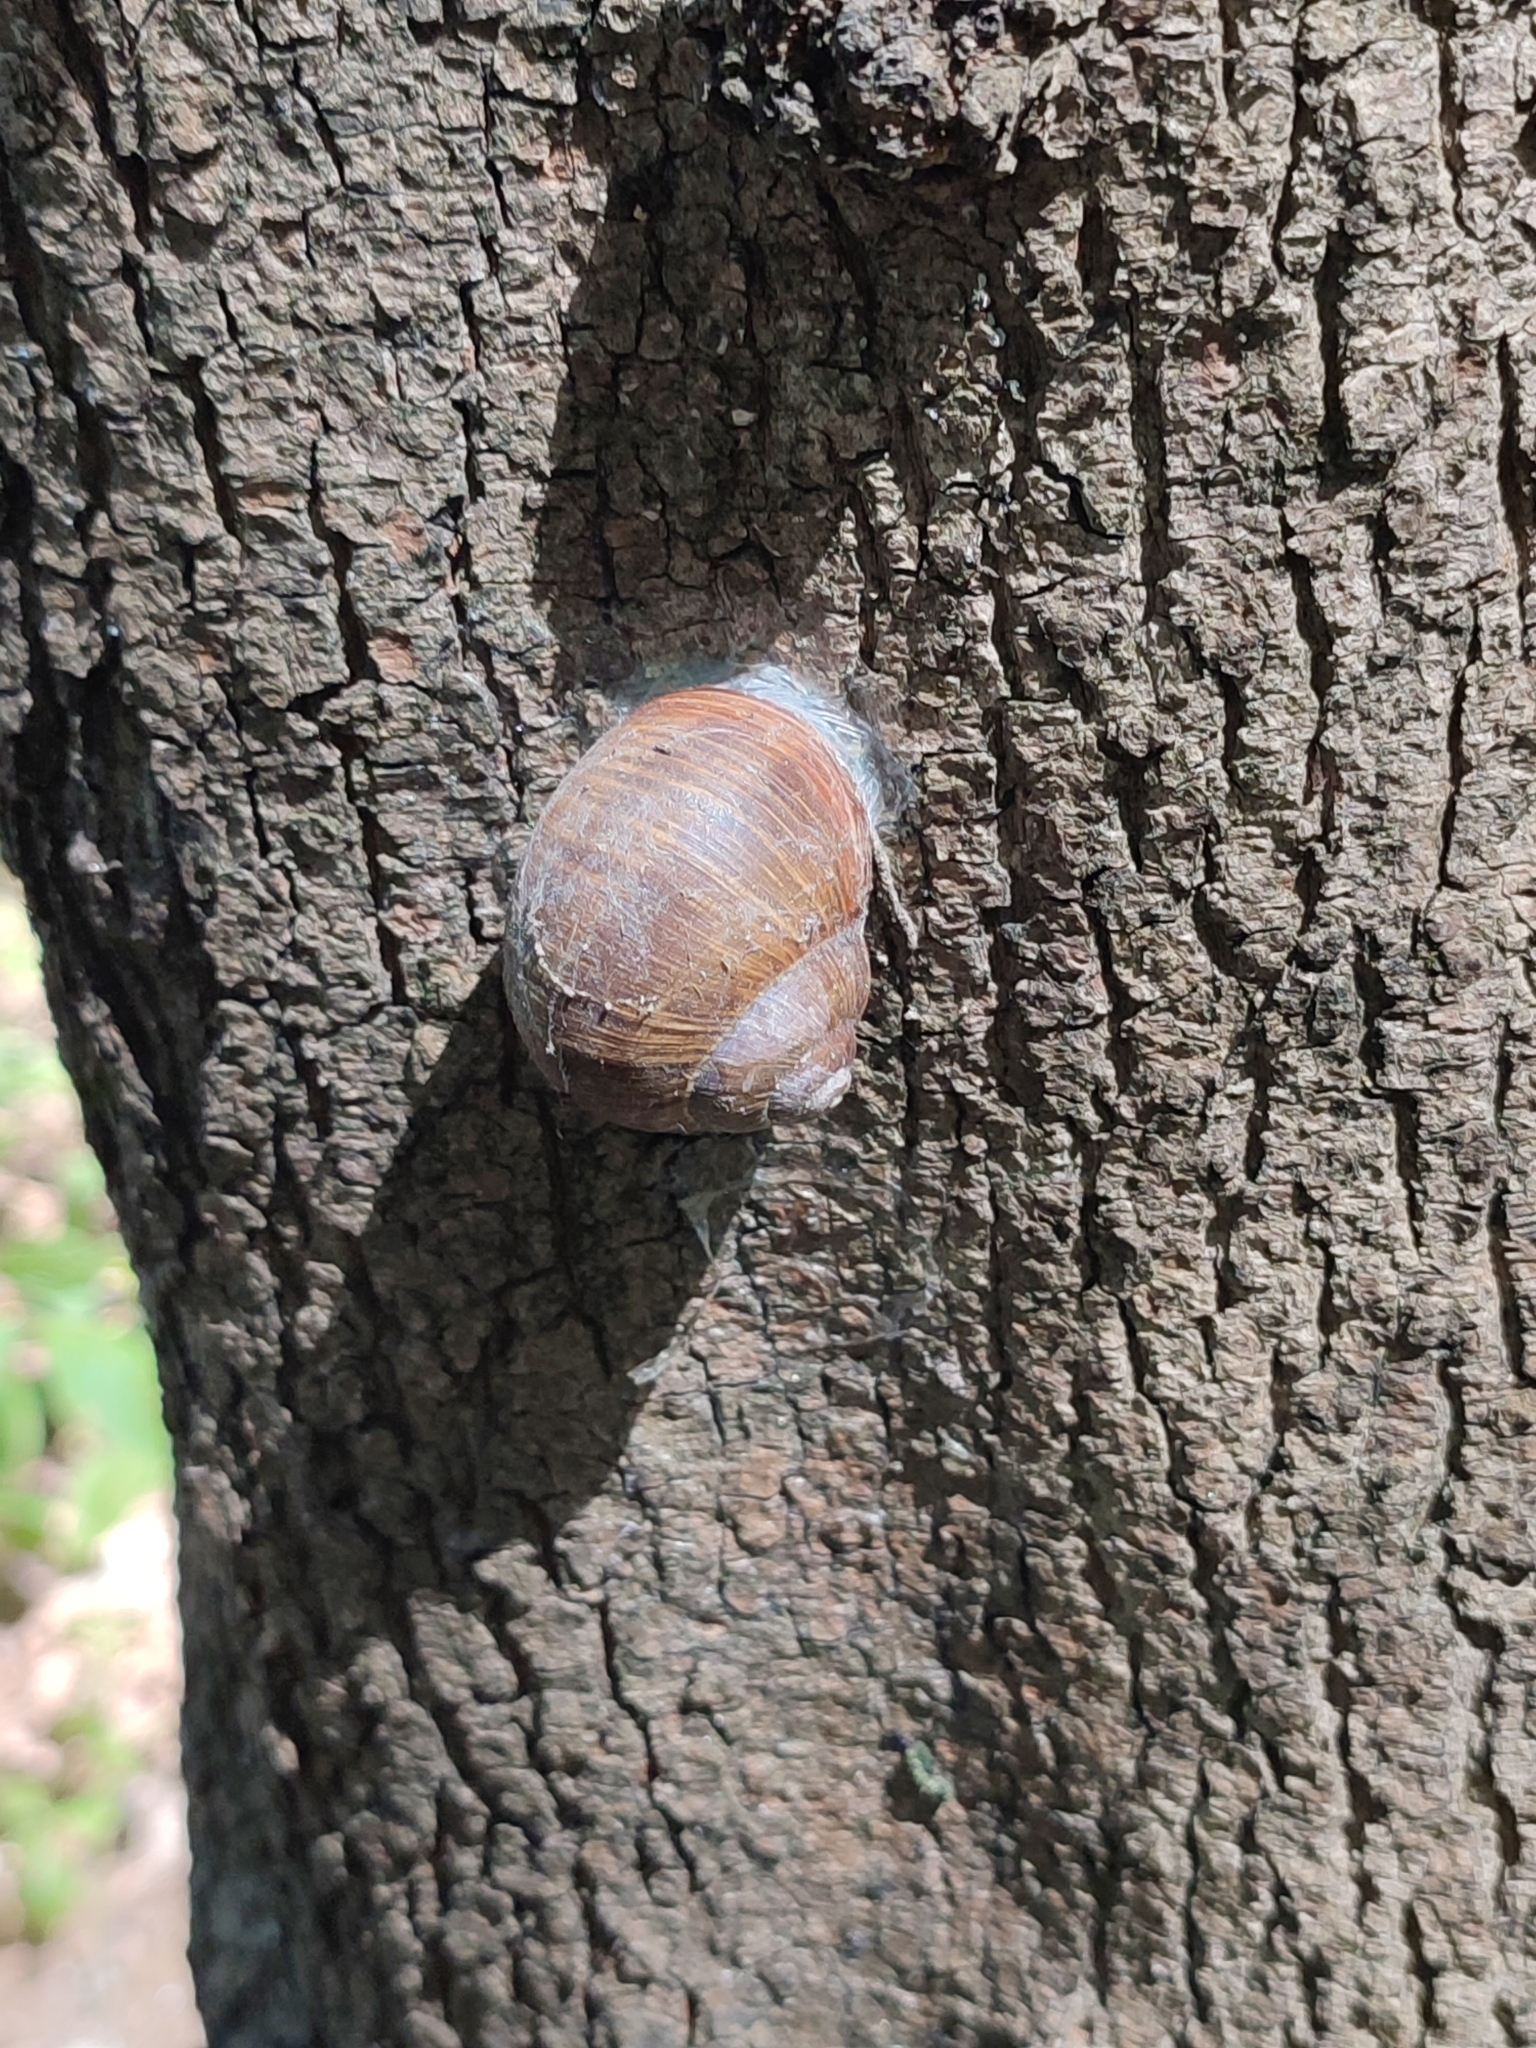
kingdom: Animalia
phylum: Mollusca
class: Gastropoda
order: Stylommatophora
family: Helicidae
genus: Helix
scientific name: Helix pomatia
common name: Roman snail
